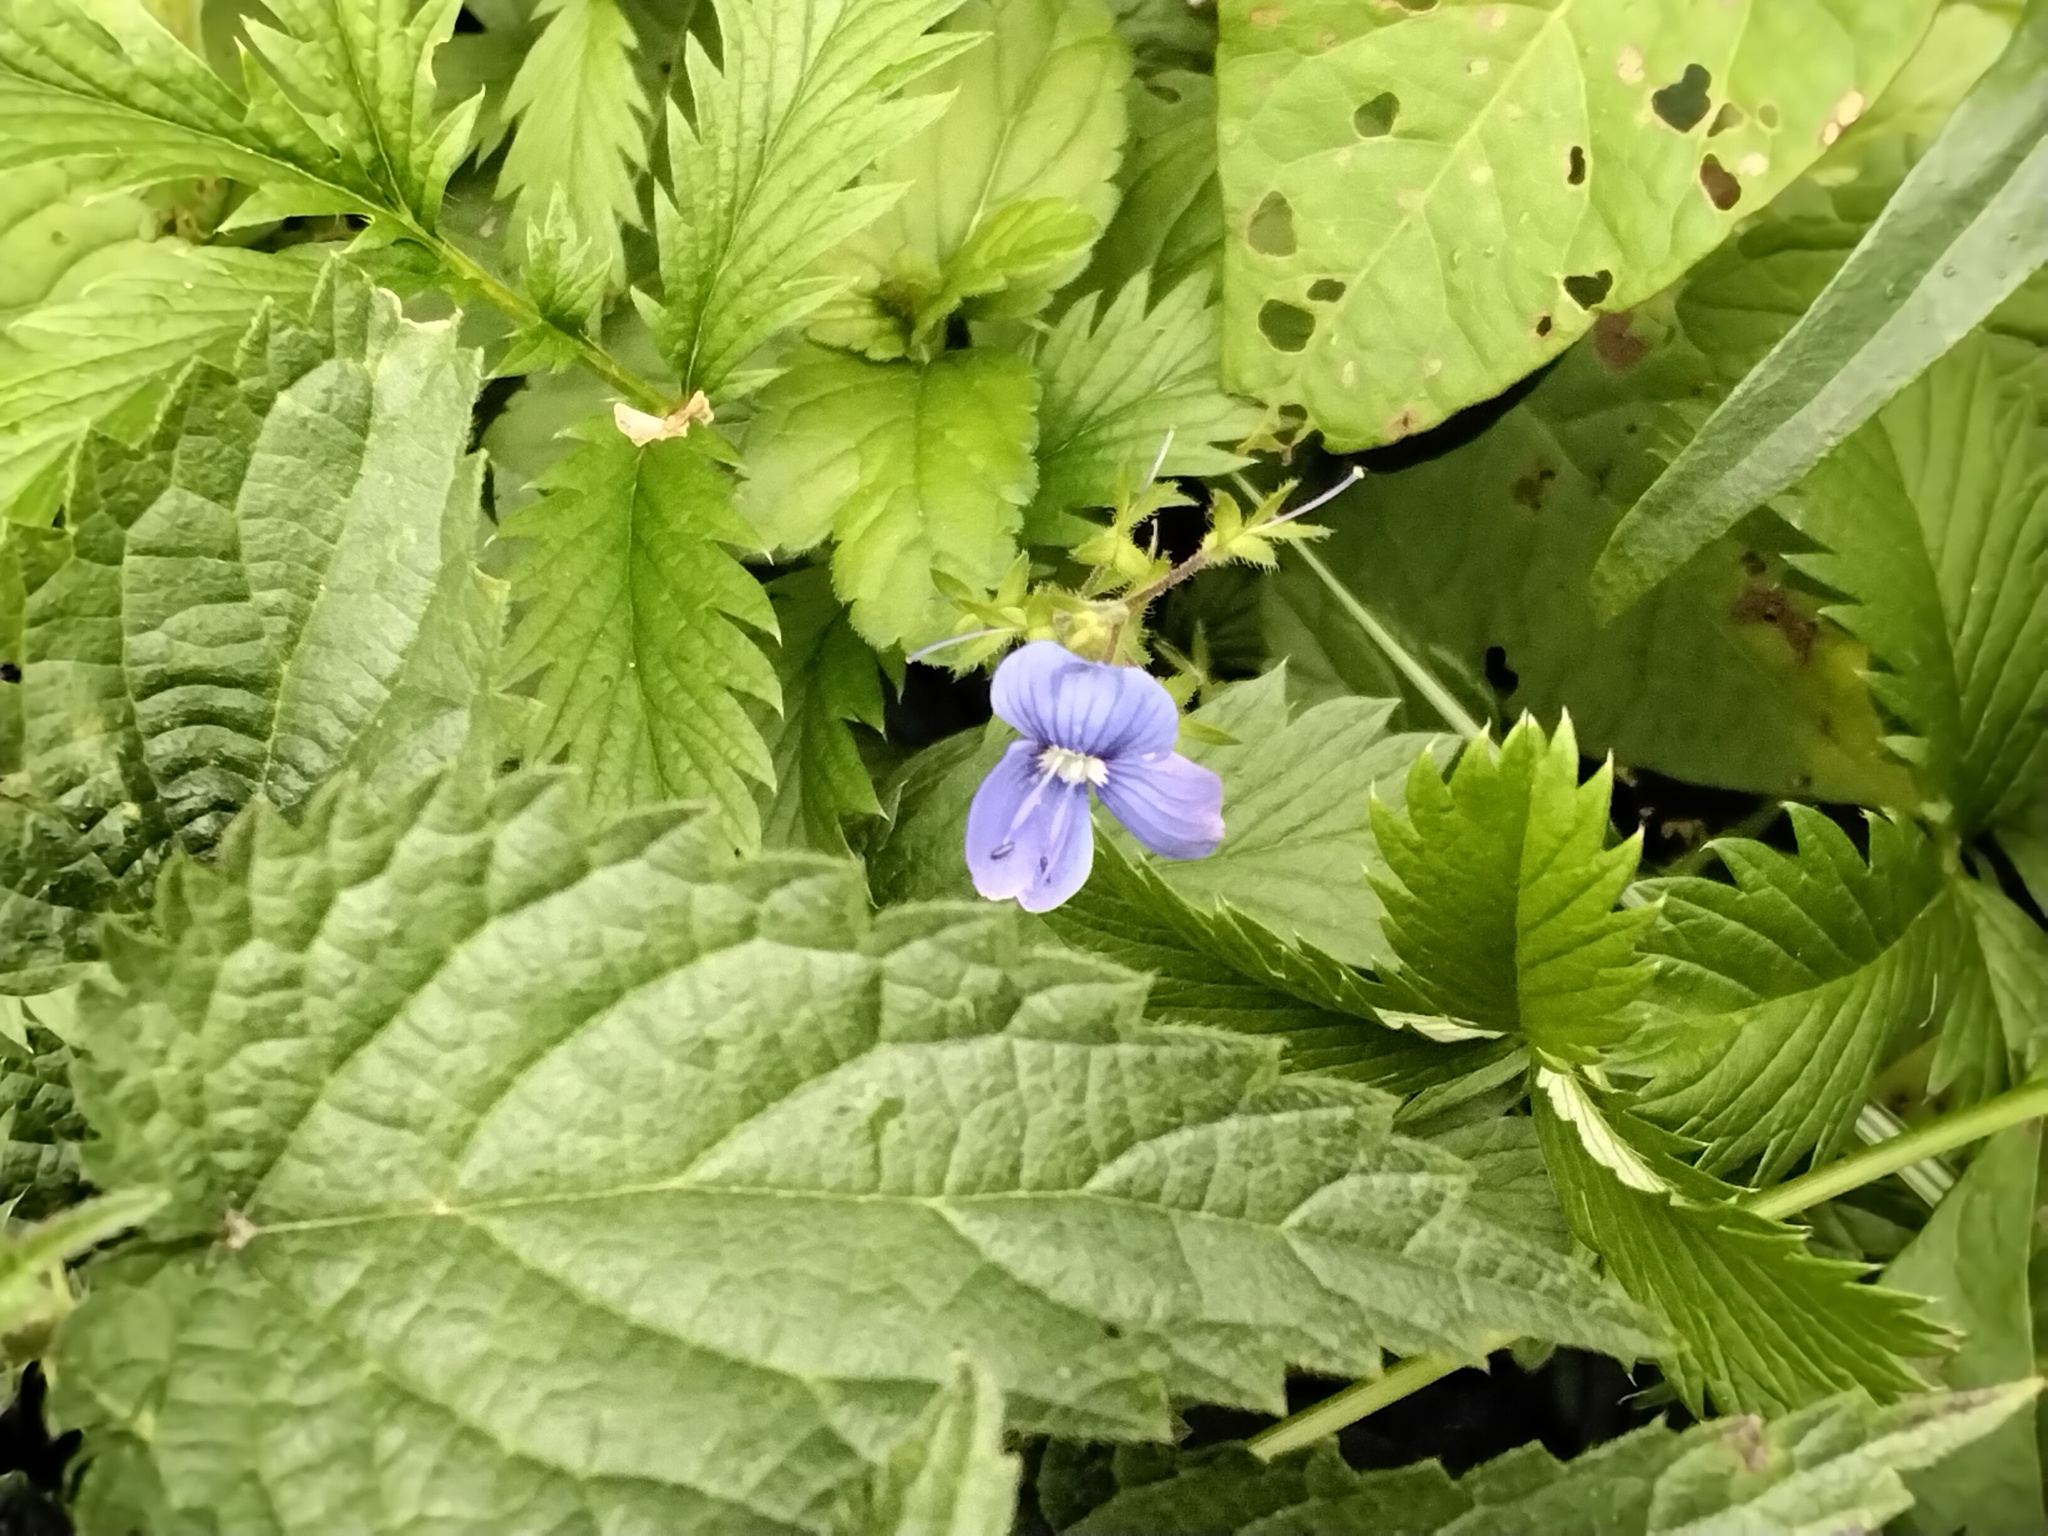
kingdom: Plantae
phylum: Tracheophyta
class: Magnoliopsida
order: Lamiales
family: Plantaginaceae
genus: Veronica
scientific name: Veronica chamaedrys
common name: Germander speedwell
